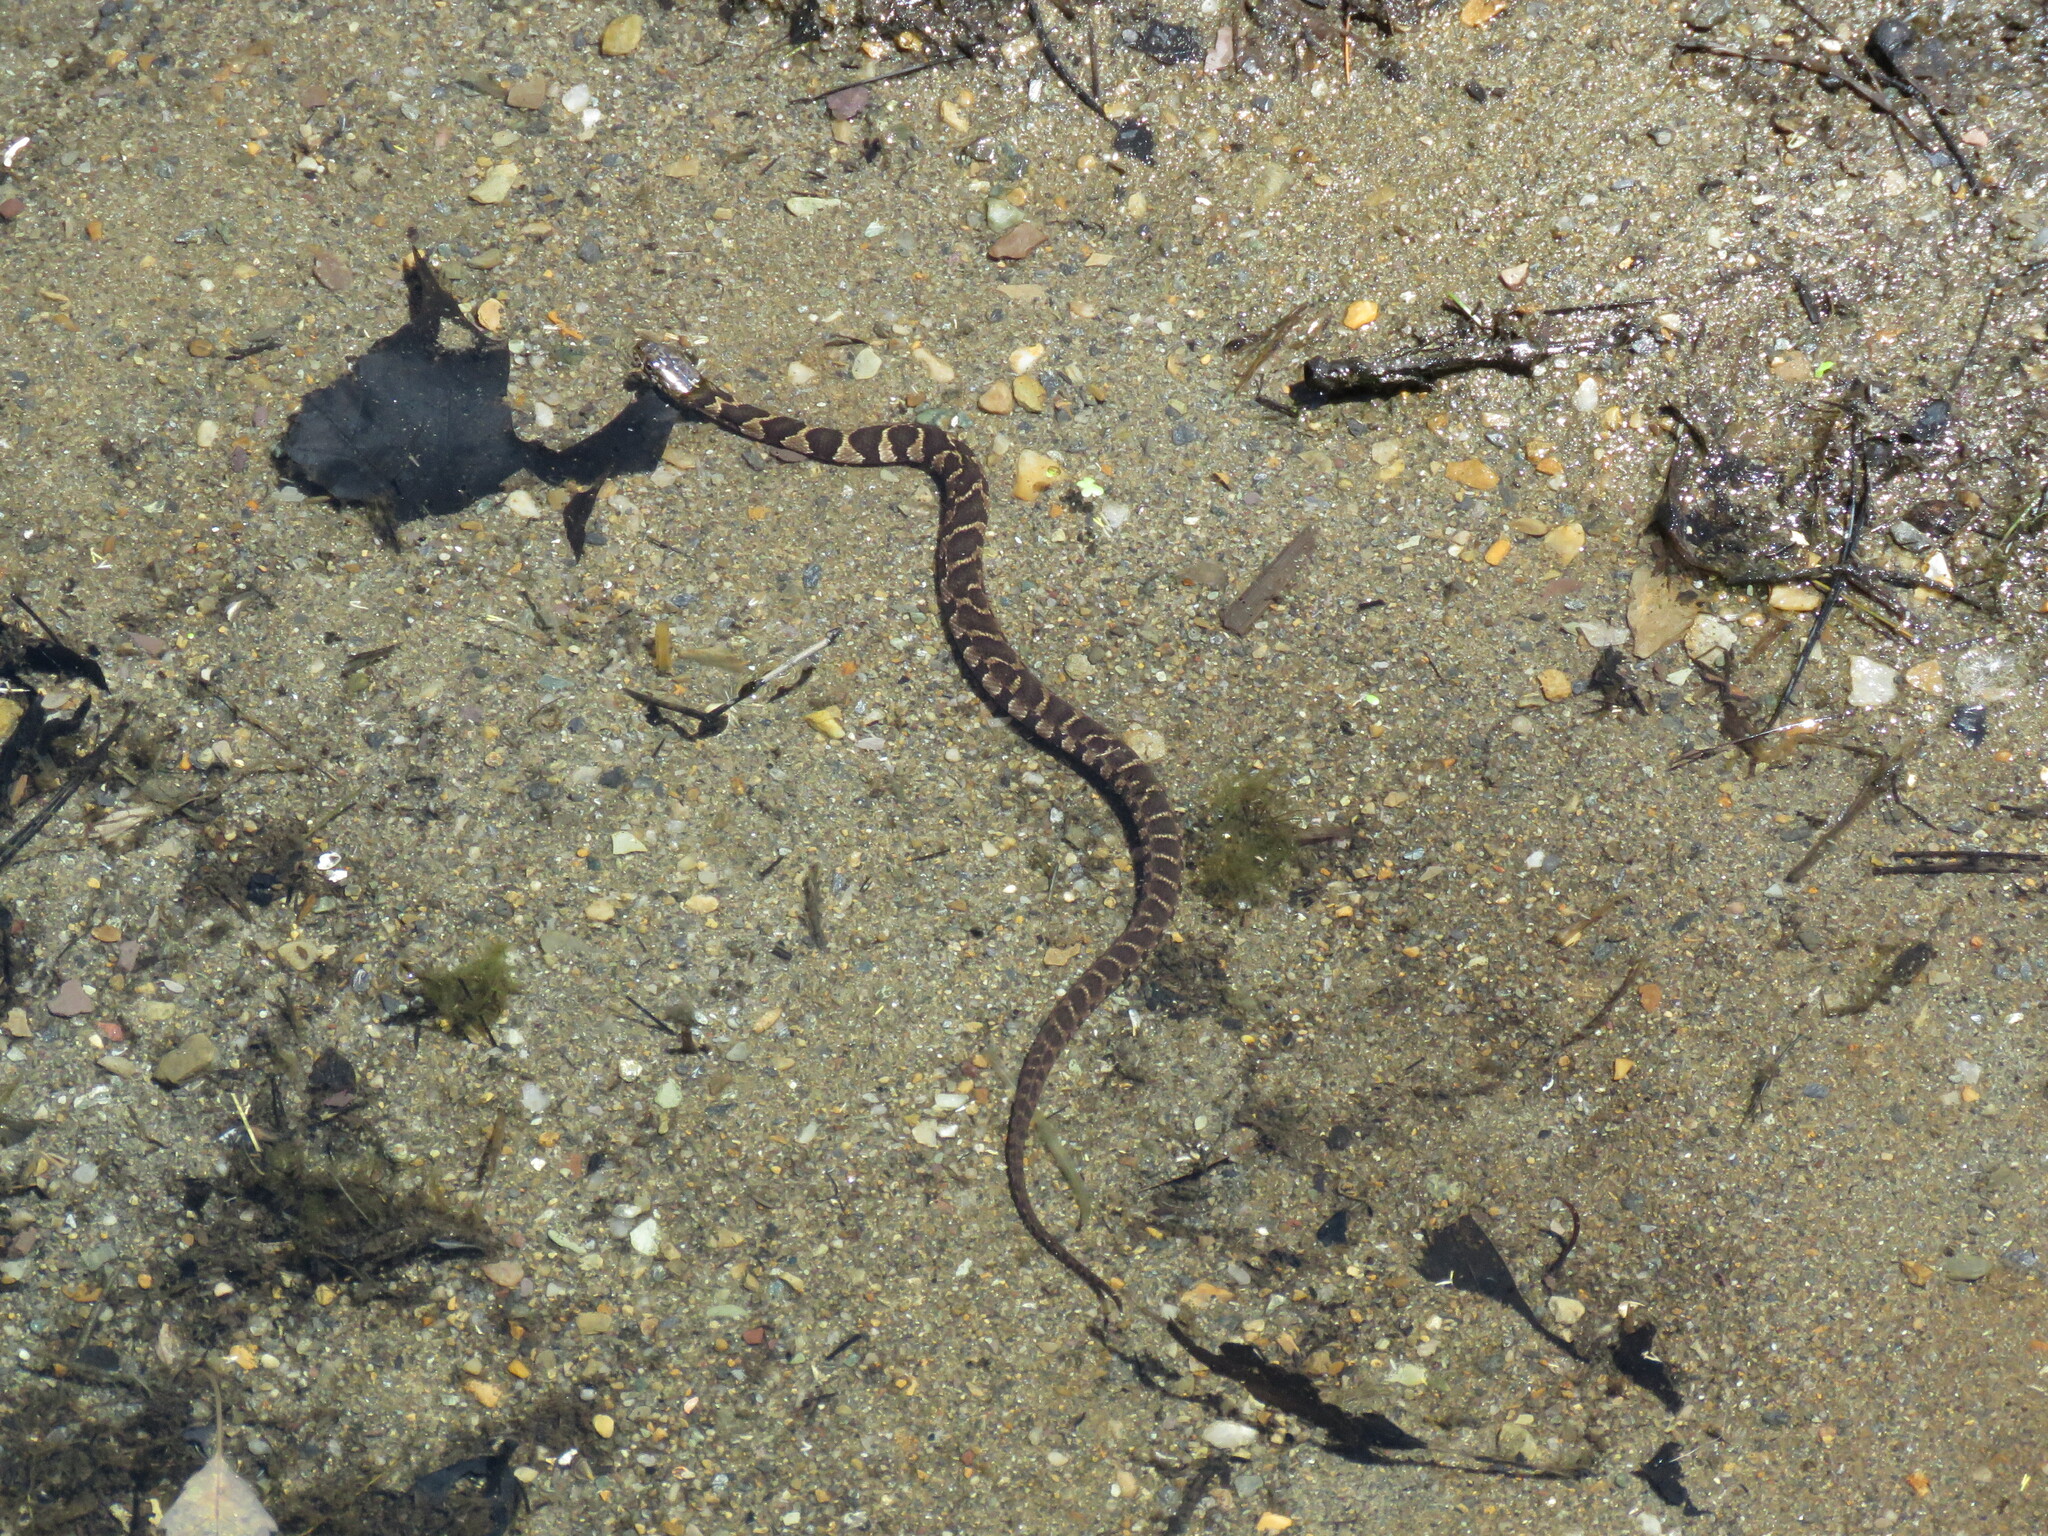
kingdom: Animalia
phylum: Chordata
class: Squamata
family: Colubridae
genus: Nerodia
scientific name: Nerodia sipedon
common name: Northern water snake
